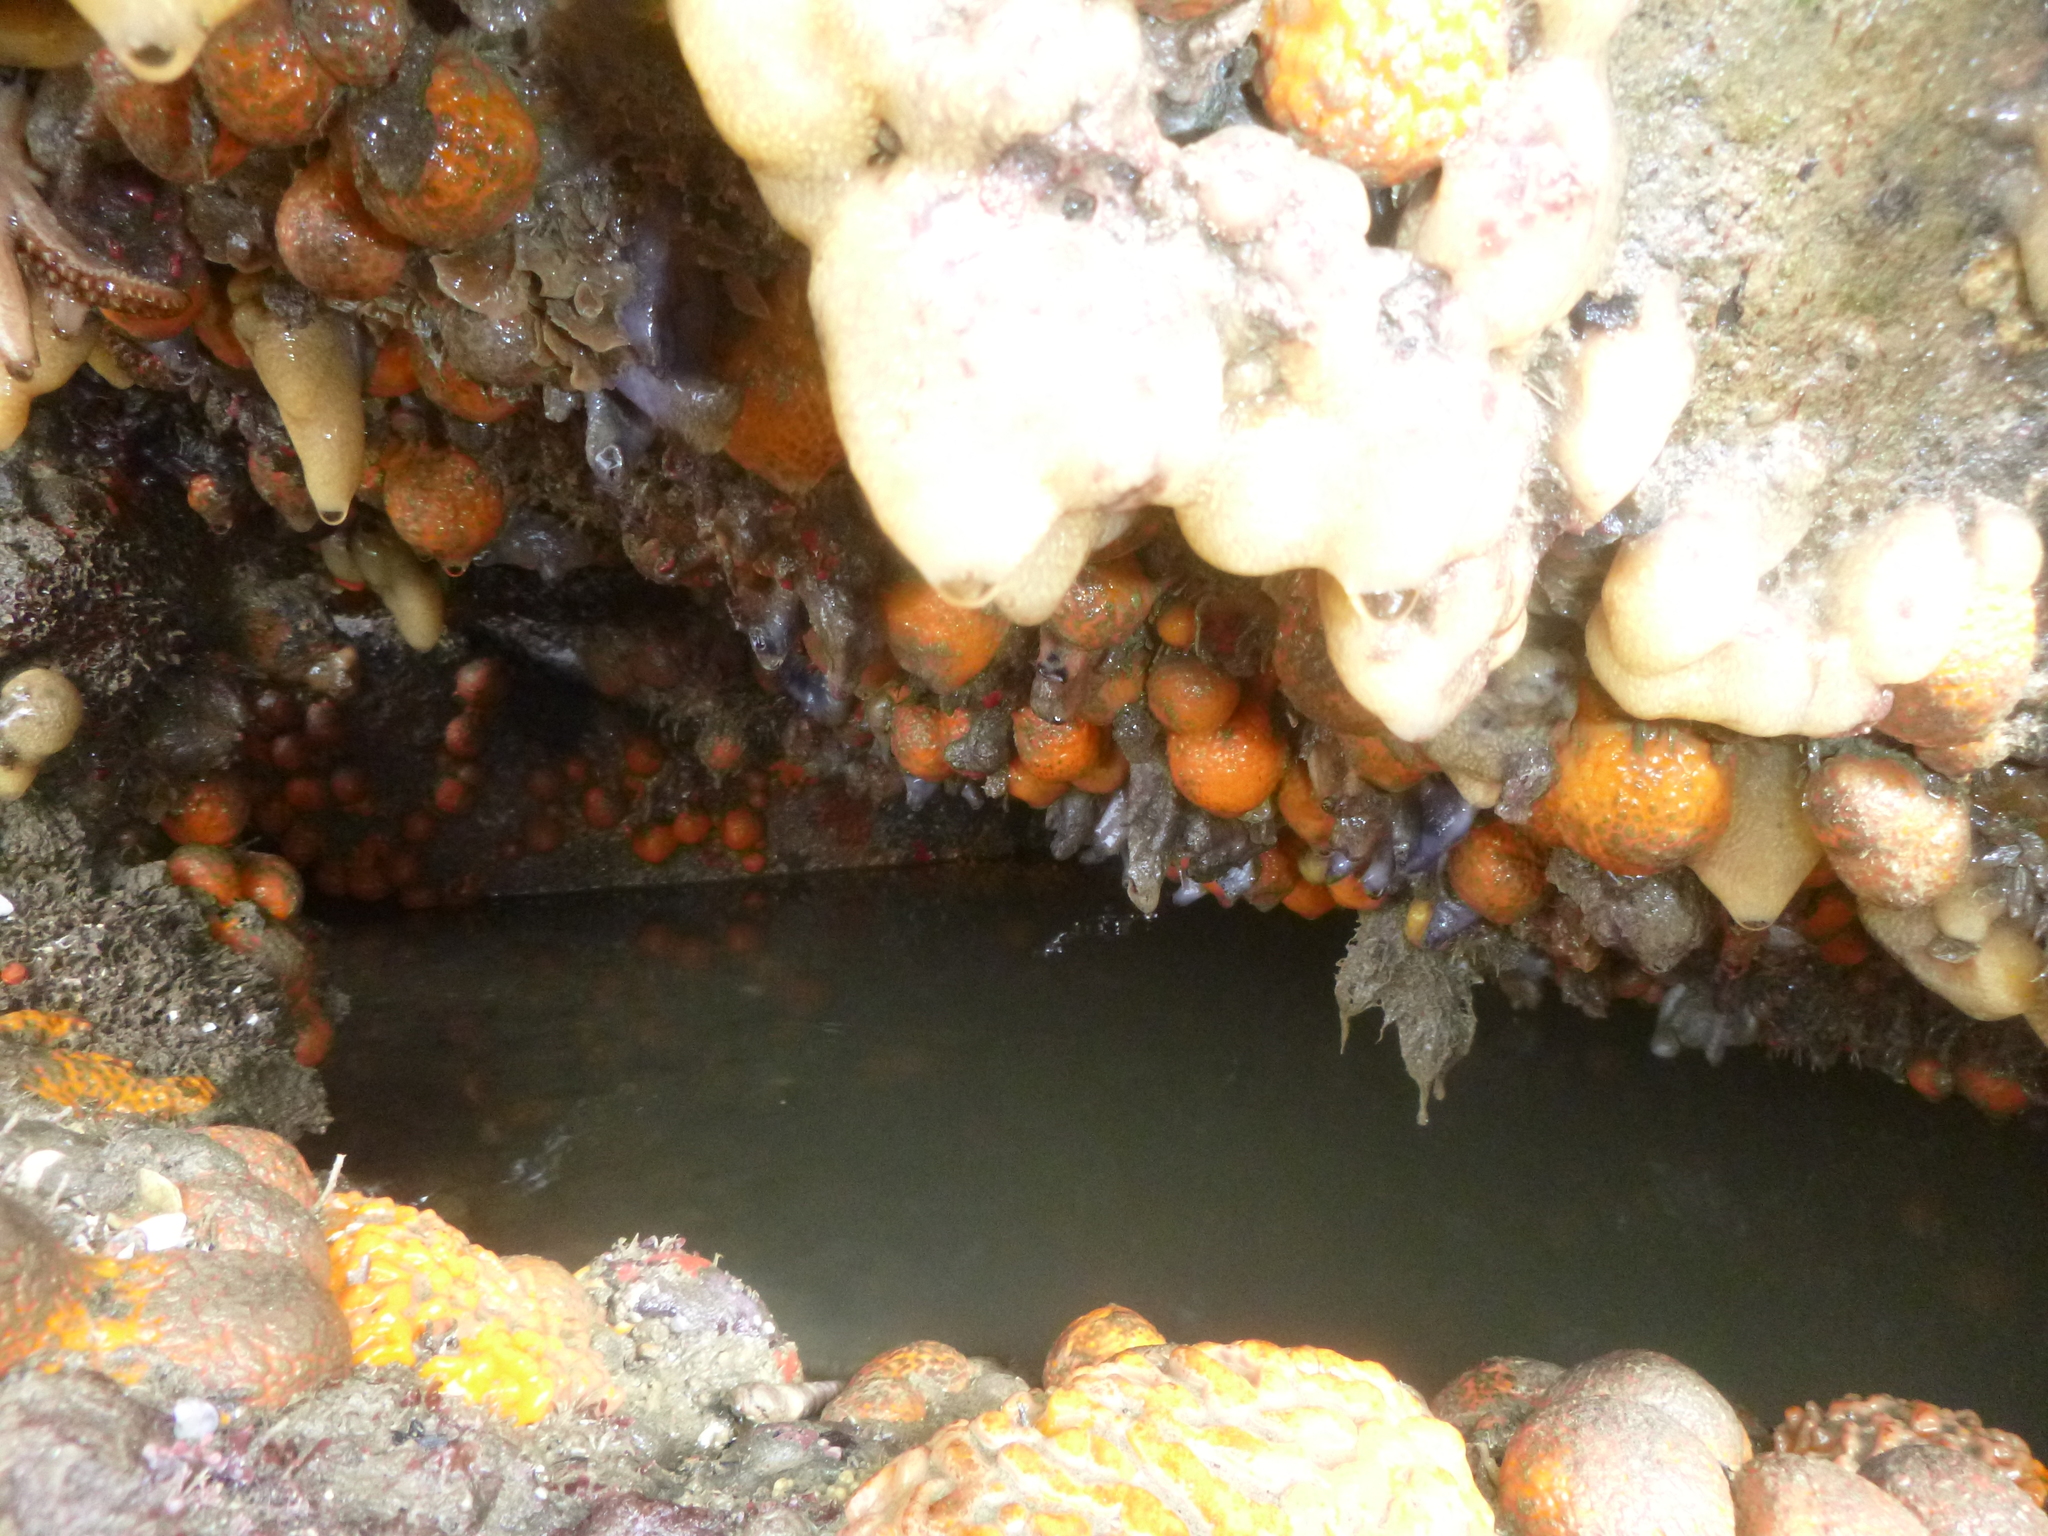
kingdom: Animalia
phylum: Porifera
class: Demospongiae
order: Tethyida
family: Tethyidae
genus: Tethya
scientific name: Tethya burtoni
